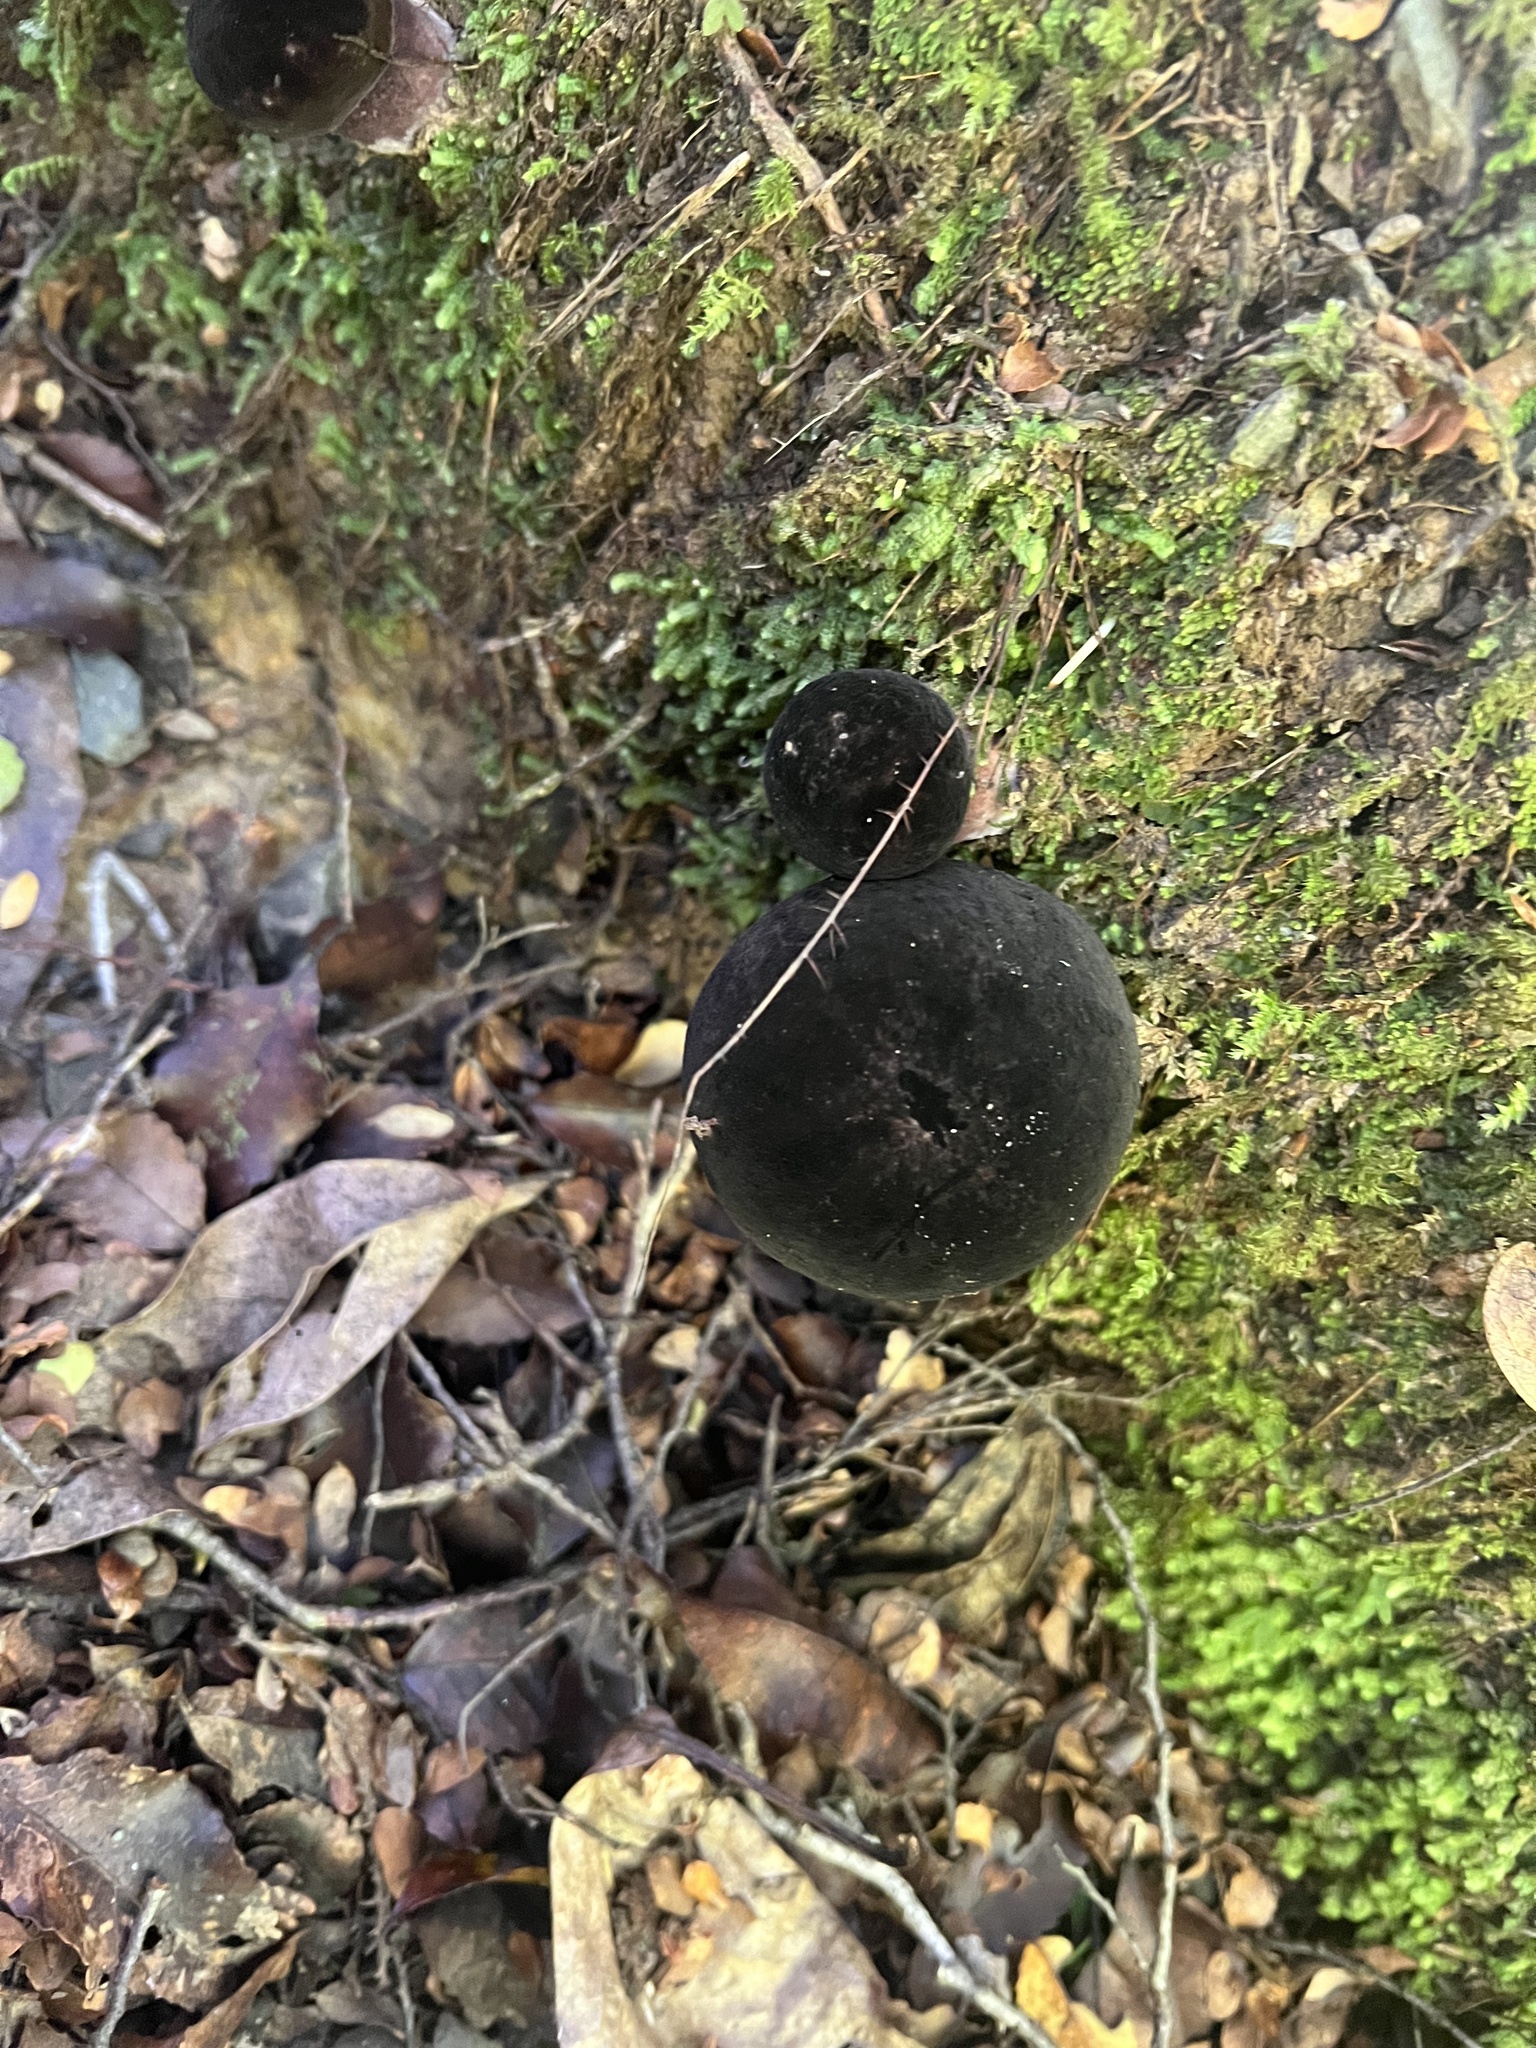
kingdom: Fungi
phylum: Basidiomycota
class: Agaricomycetes
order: Boletales
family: Boletaceae
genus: Porphyrellus
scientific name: Porphyrellus formosus
